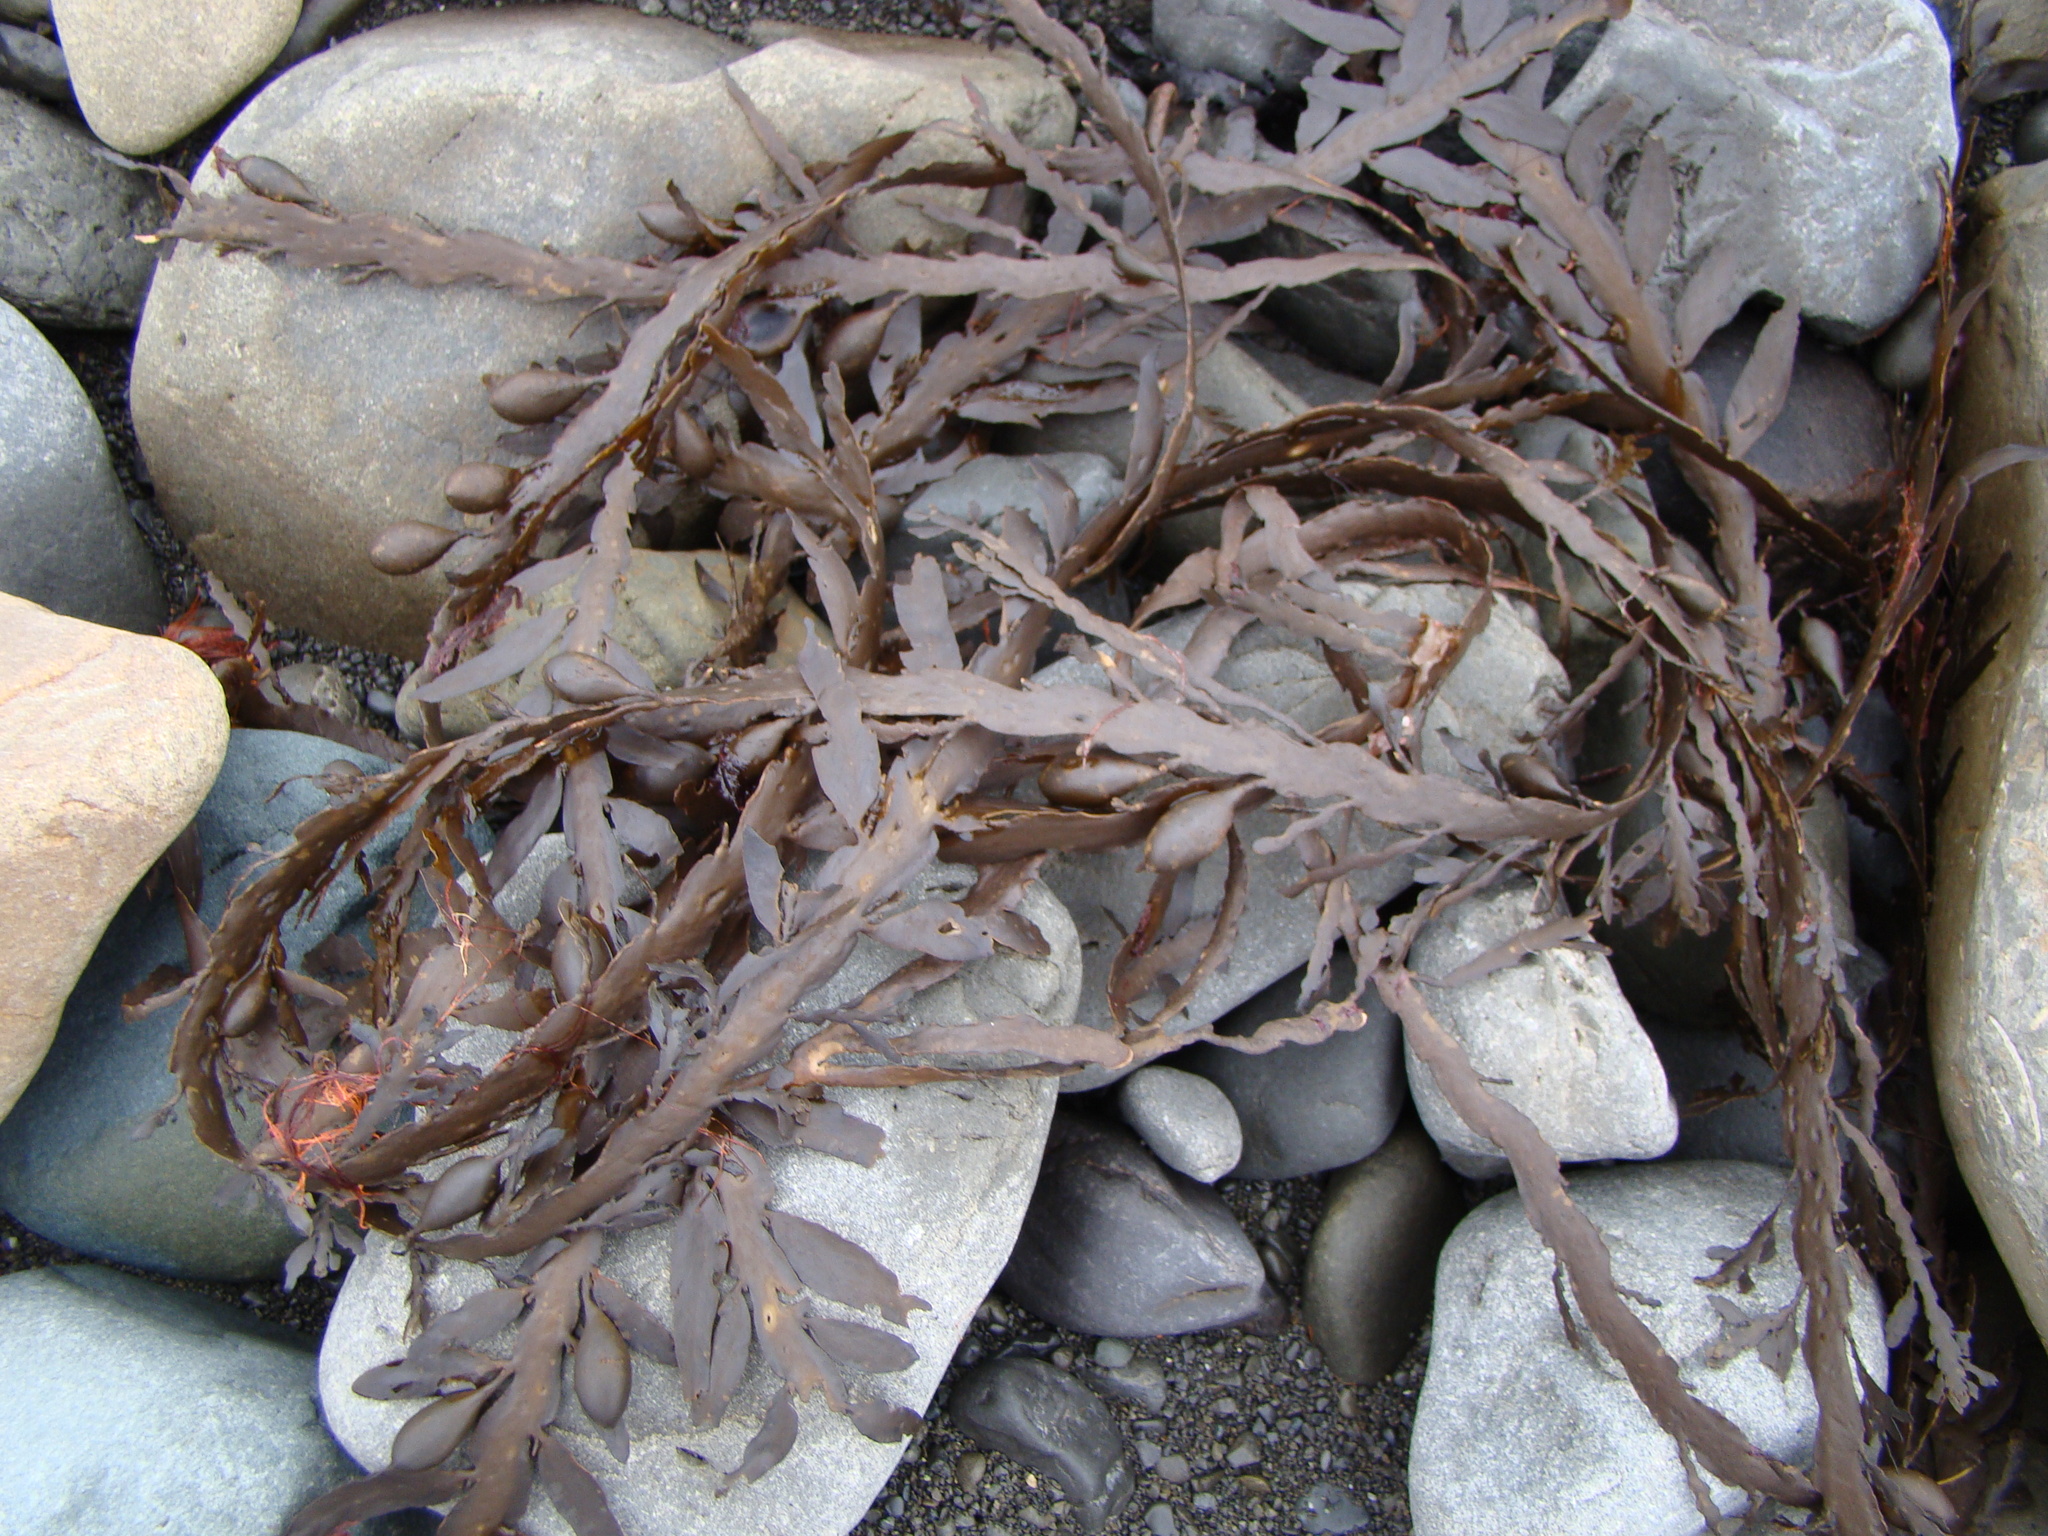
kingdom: Chromista
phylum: Ochrophyta
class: Phaeophyceae
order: Fucales
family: Sargassaceae
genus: Carpophyllum
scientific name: Carpophyllum maschalocarpum
